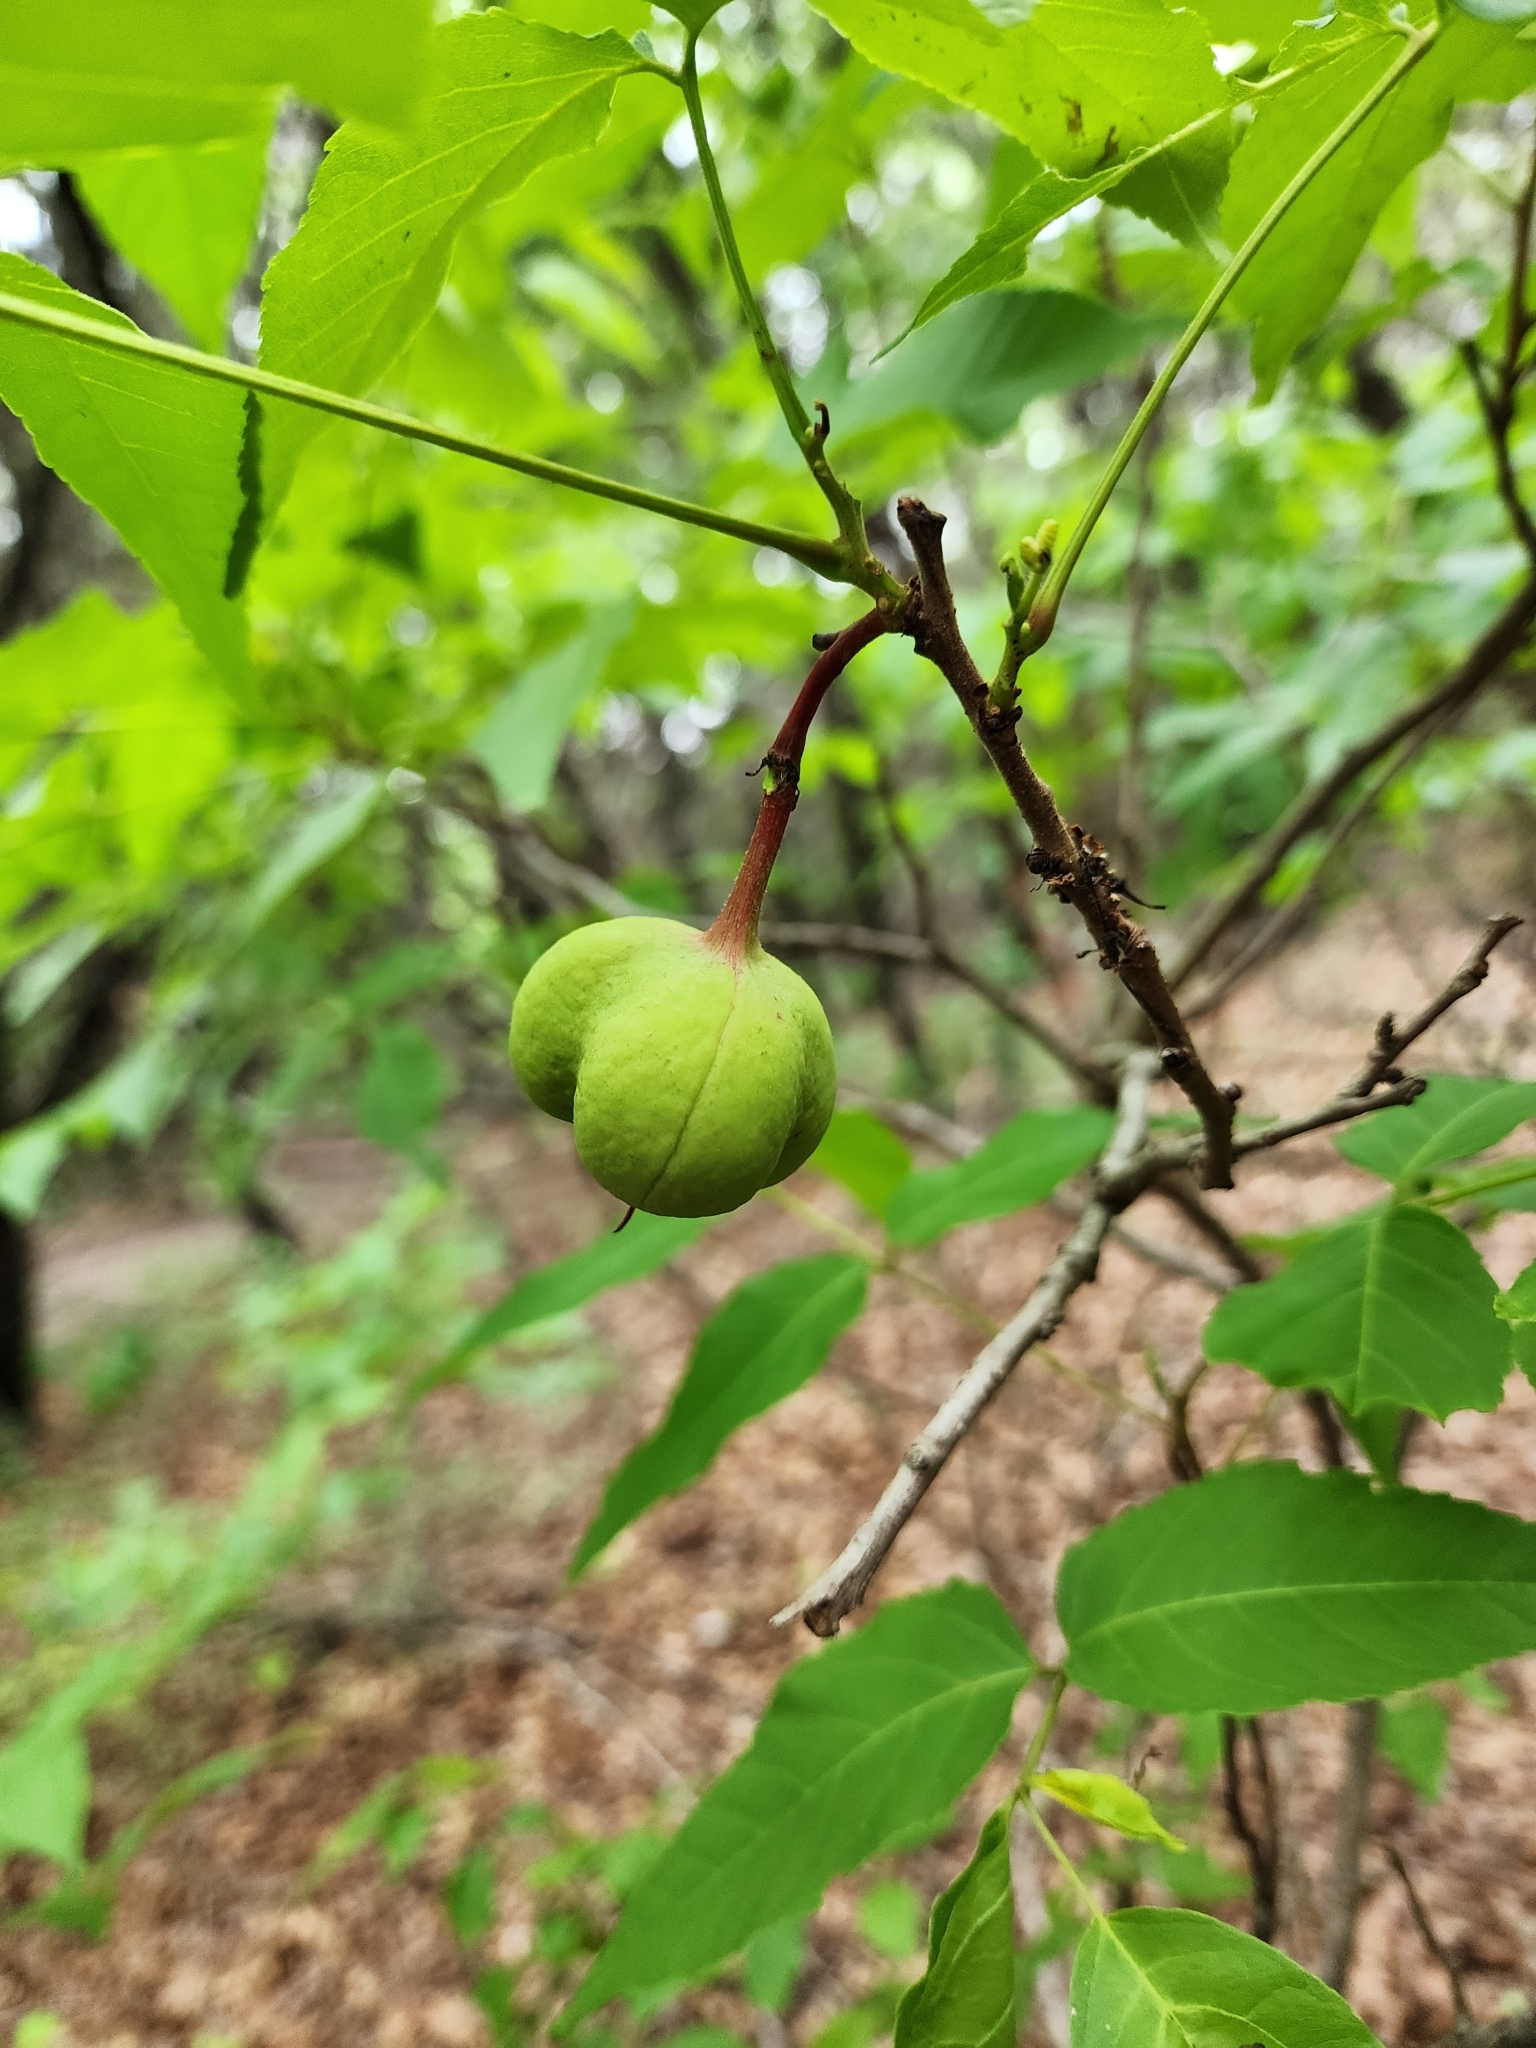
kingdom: Plantae
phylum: Tracheophyta
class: Magnoliopsida
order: Sapindales
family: Sapindaceae
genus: Ungnadia
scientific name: Ungnadia speciosa
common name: Texas-buckeye
